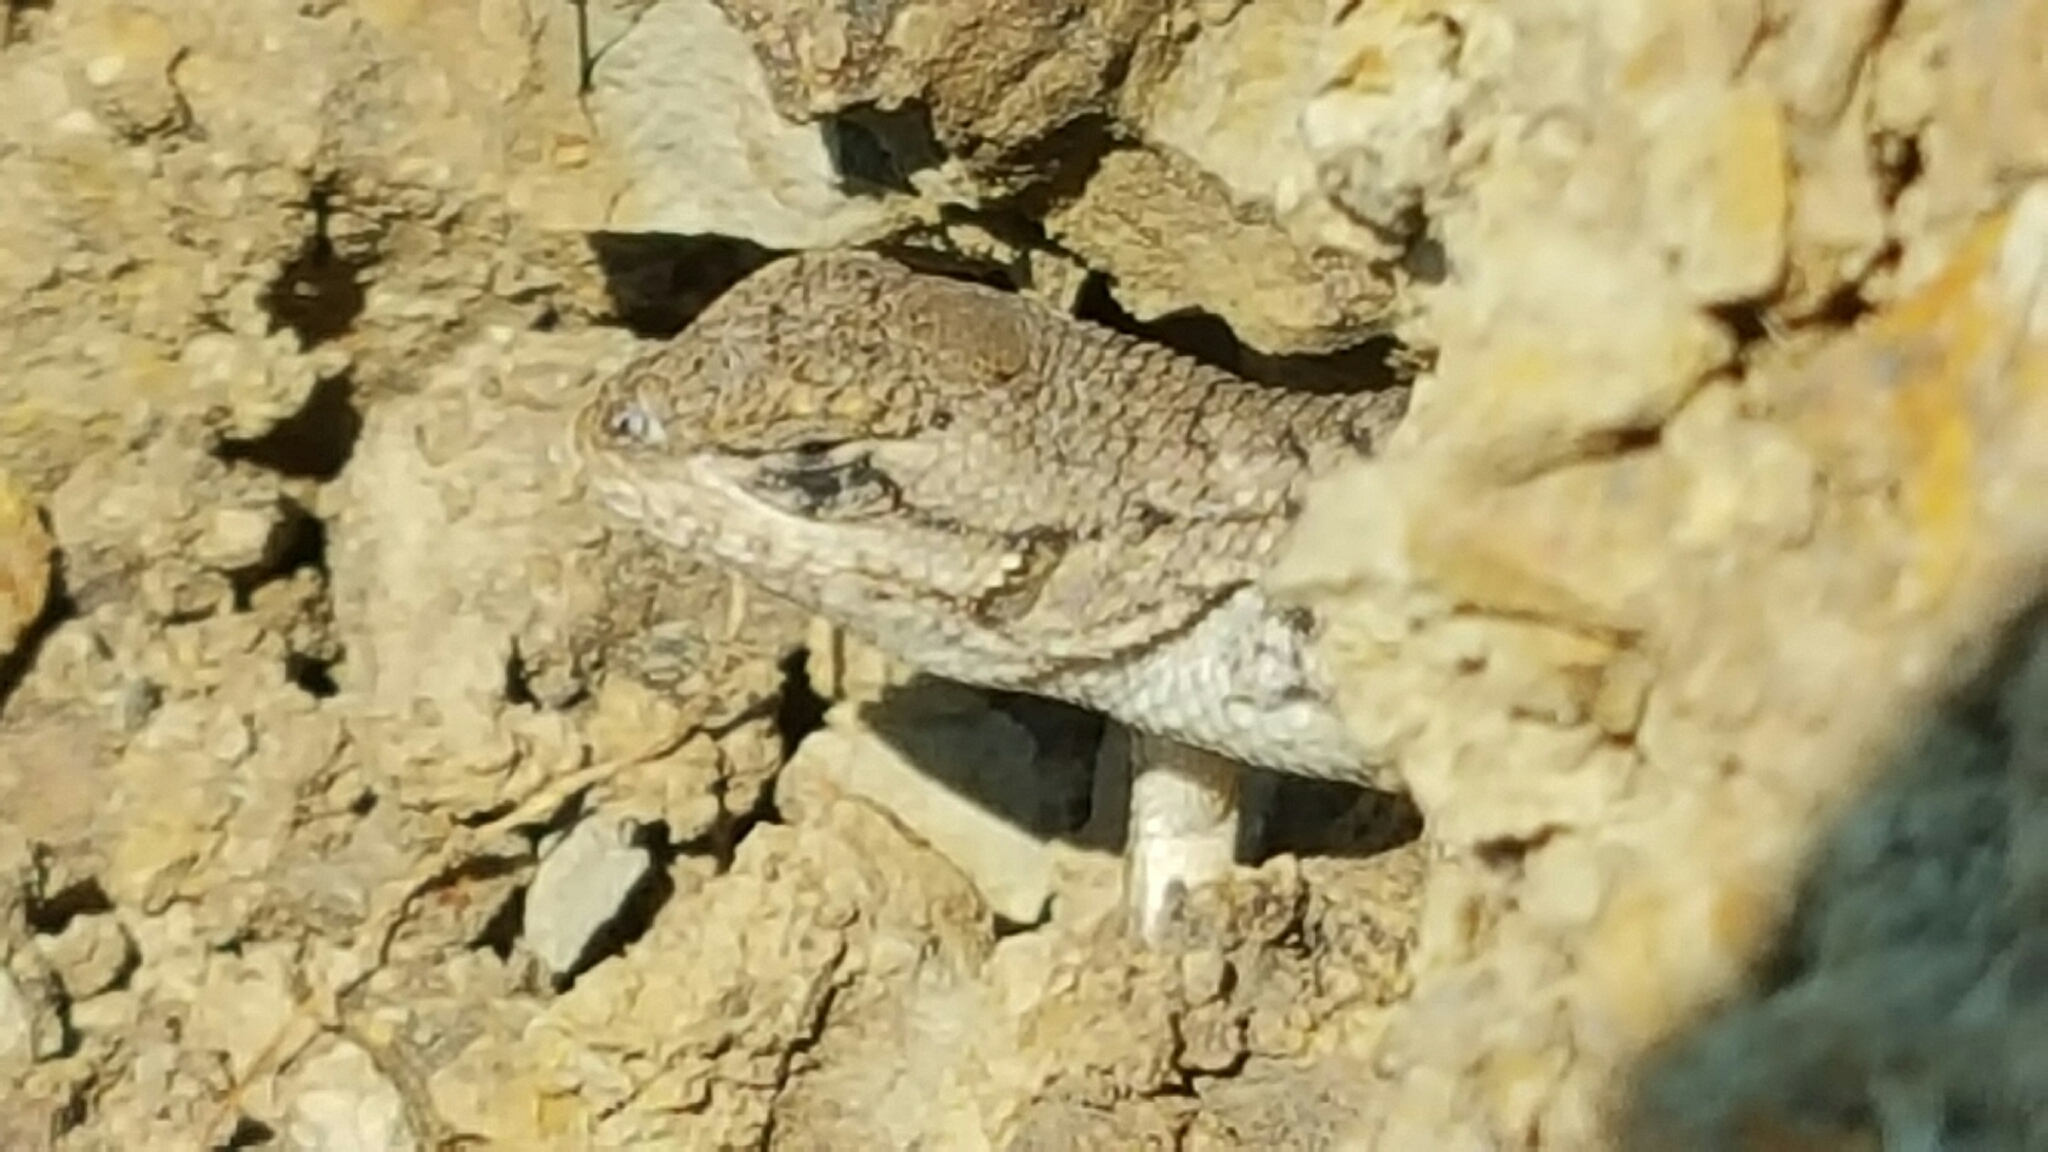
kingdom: Animalia
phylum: Chordata
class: Squamata
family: Phrynosomatidae
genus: Sceloporus
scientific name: Sceloporus occidentalis
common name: Western fence lizard
